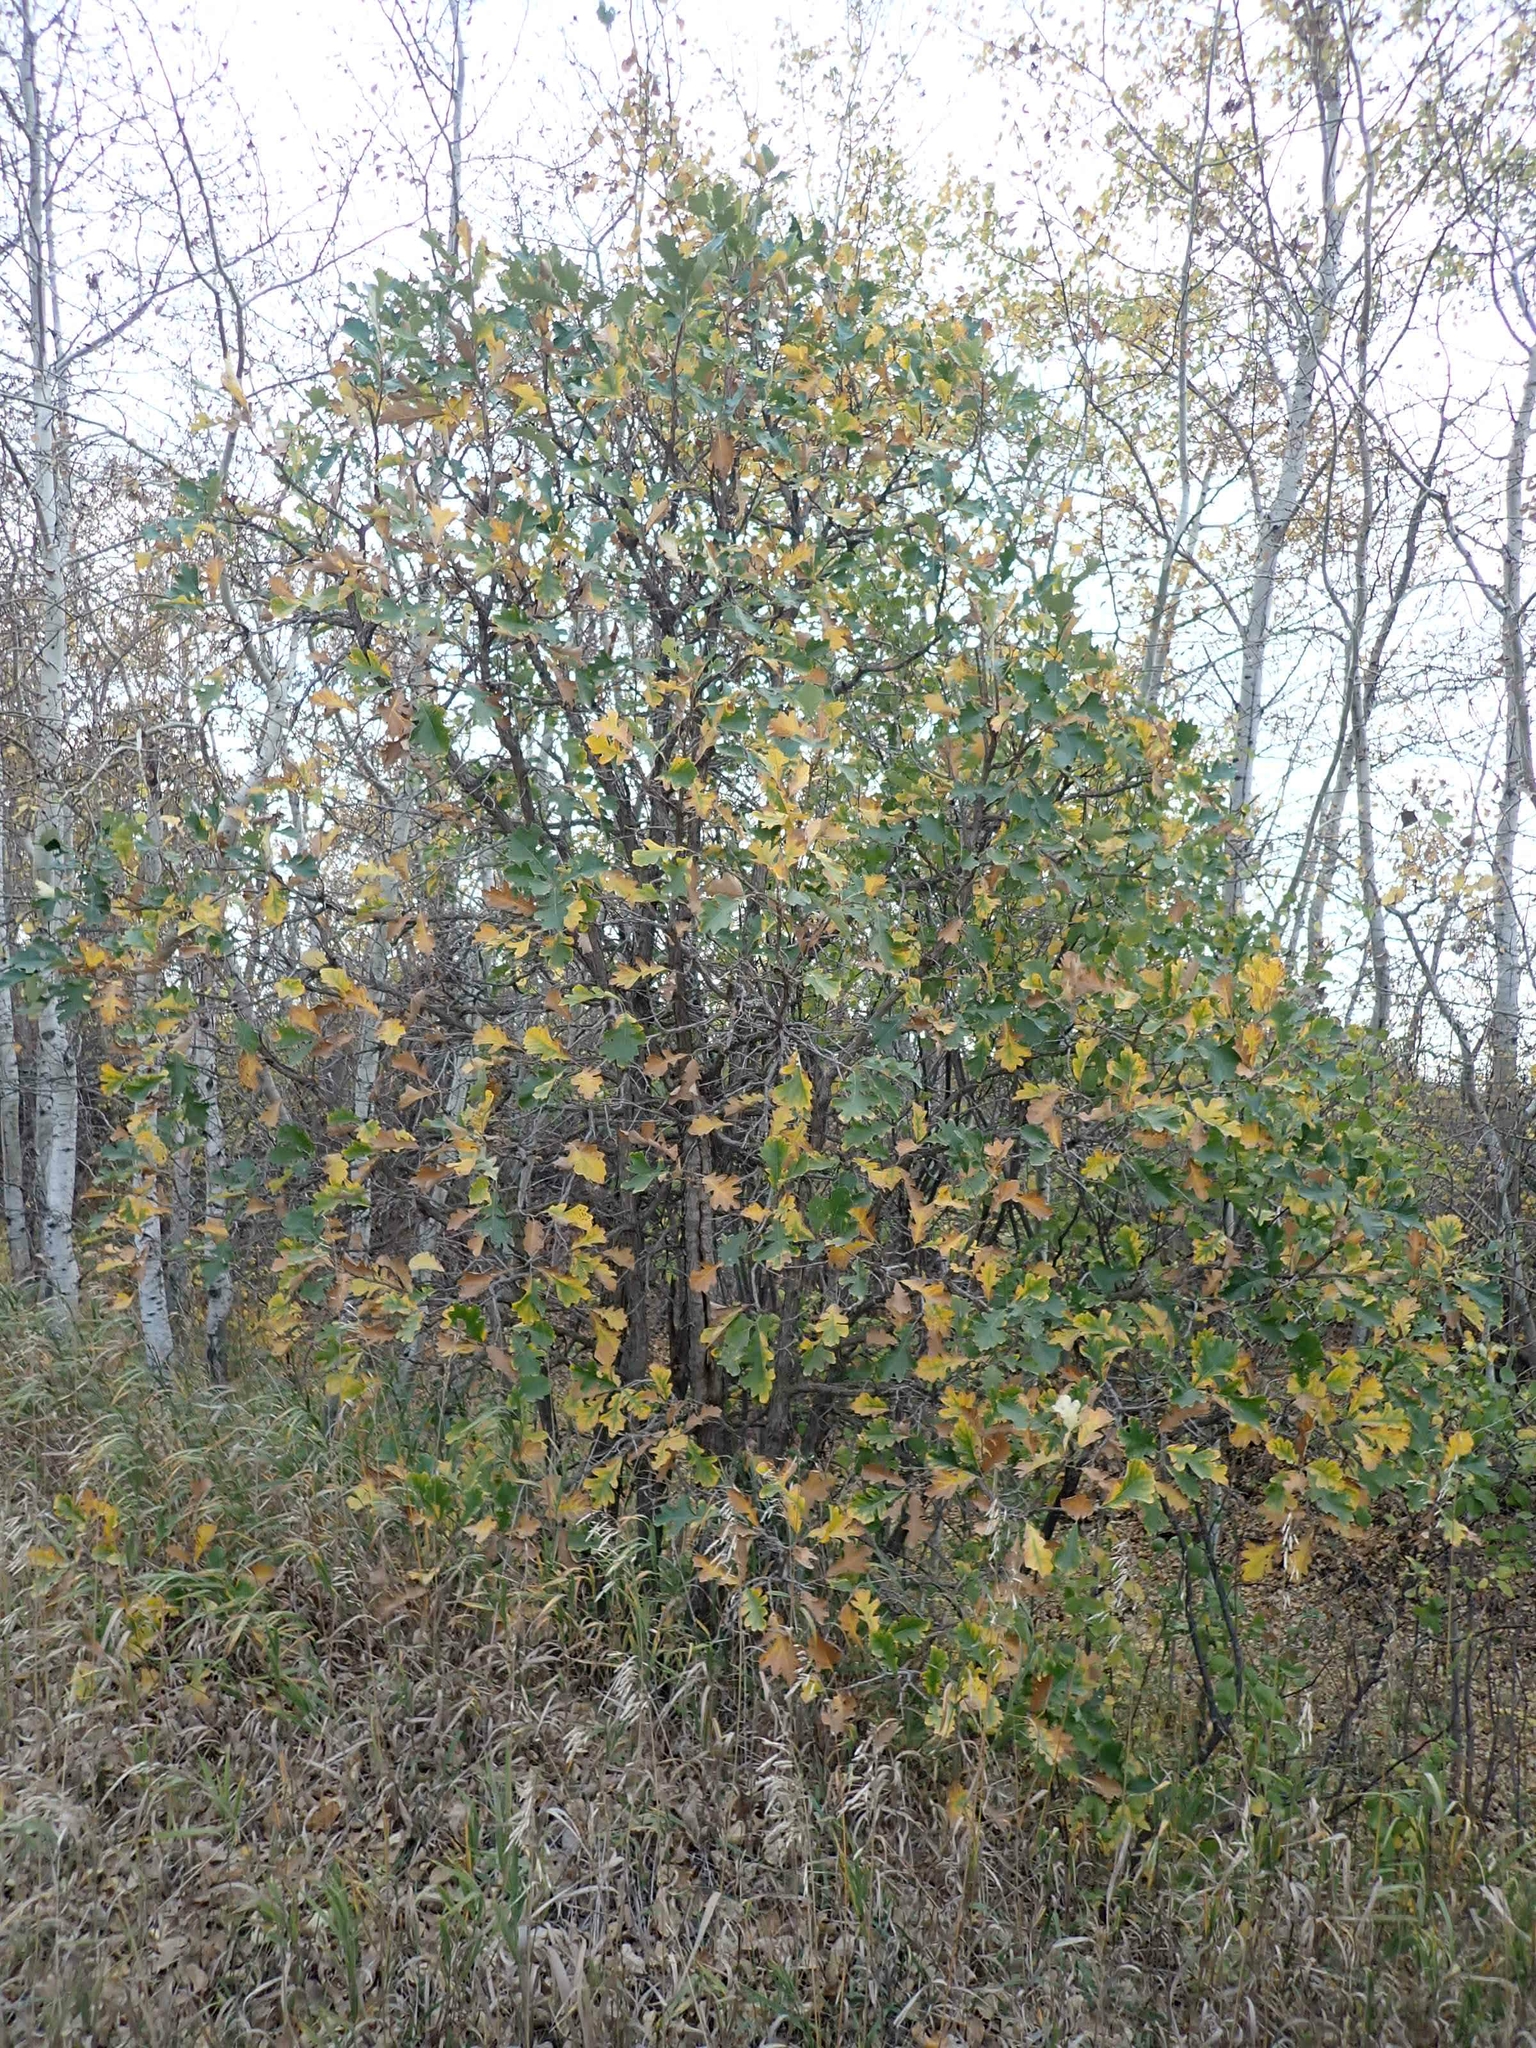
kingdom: Plantae
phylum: Tracheophyta
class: Magnoliopsida
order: Fagales
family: Fagaceae
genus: Quercus
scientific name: Quercus macrocarpa
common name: Bur oak
